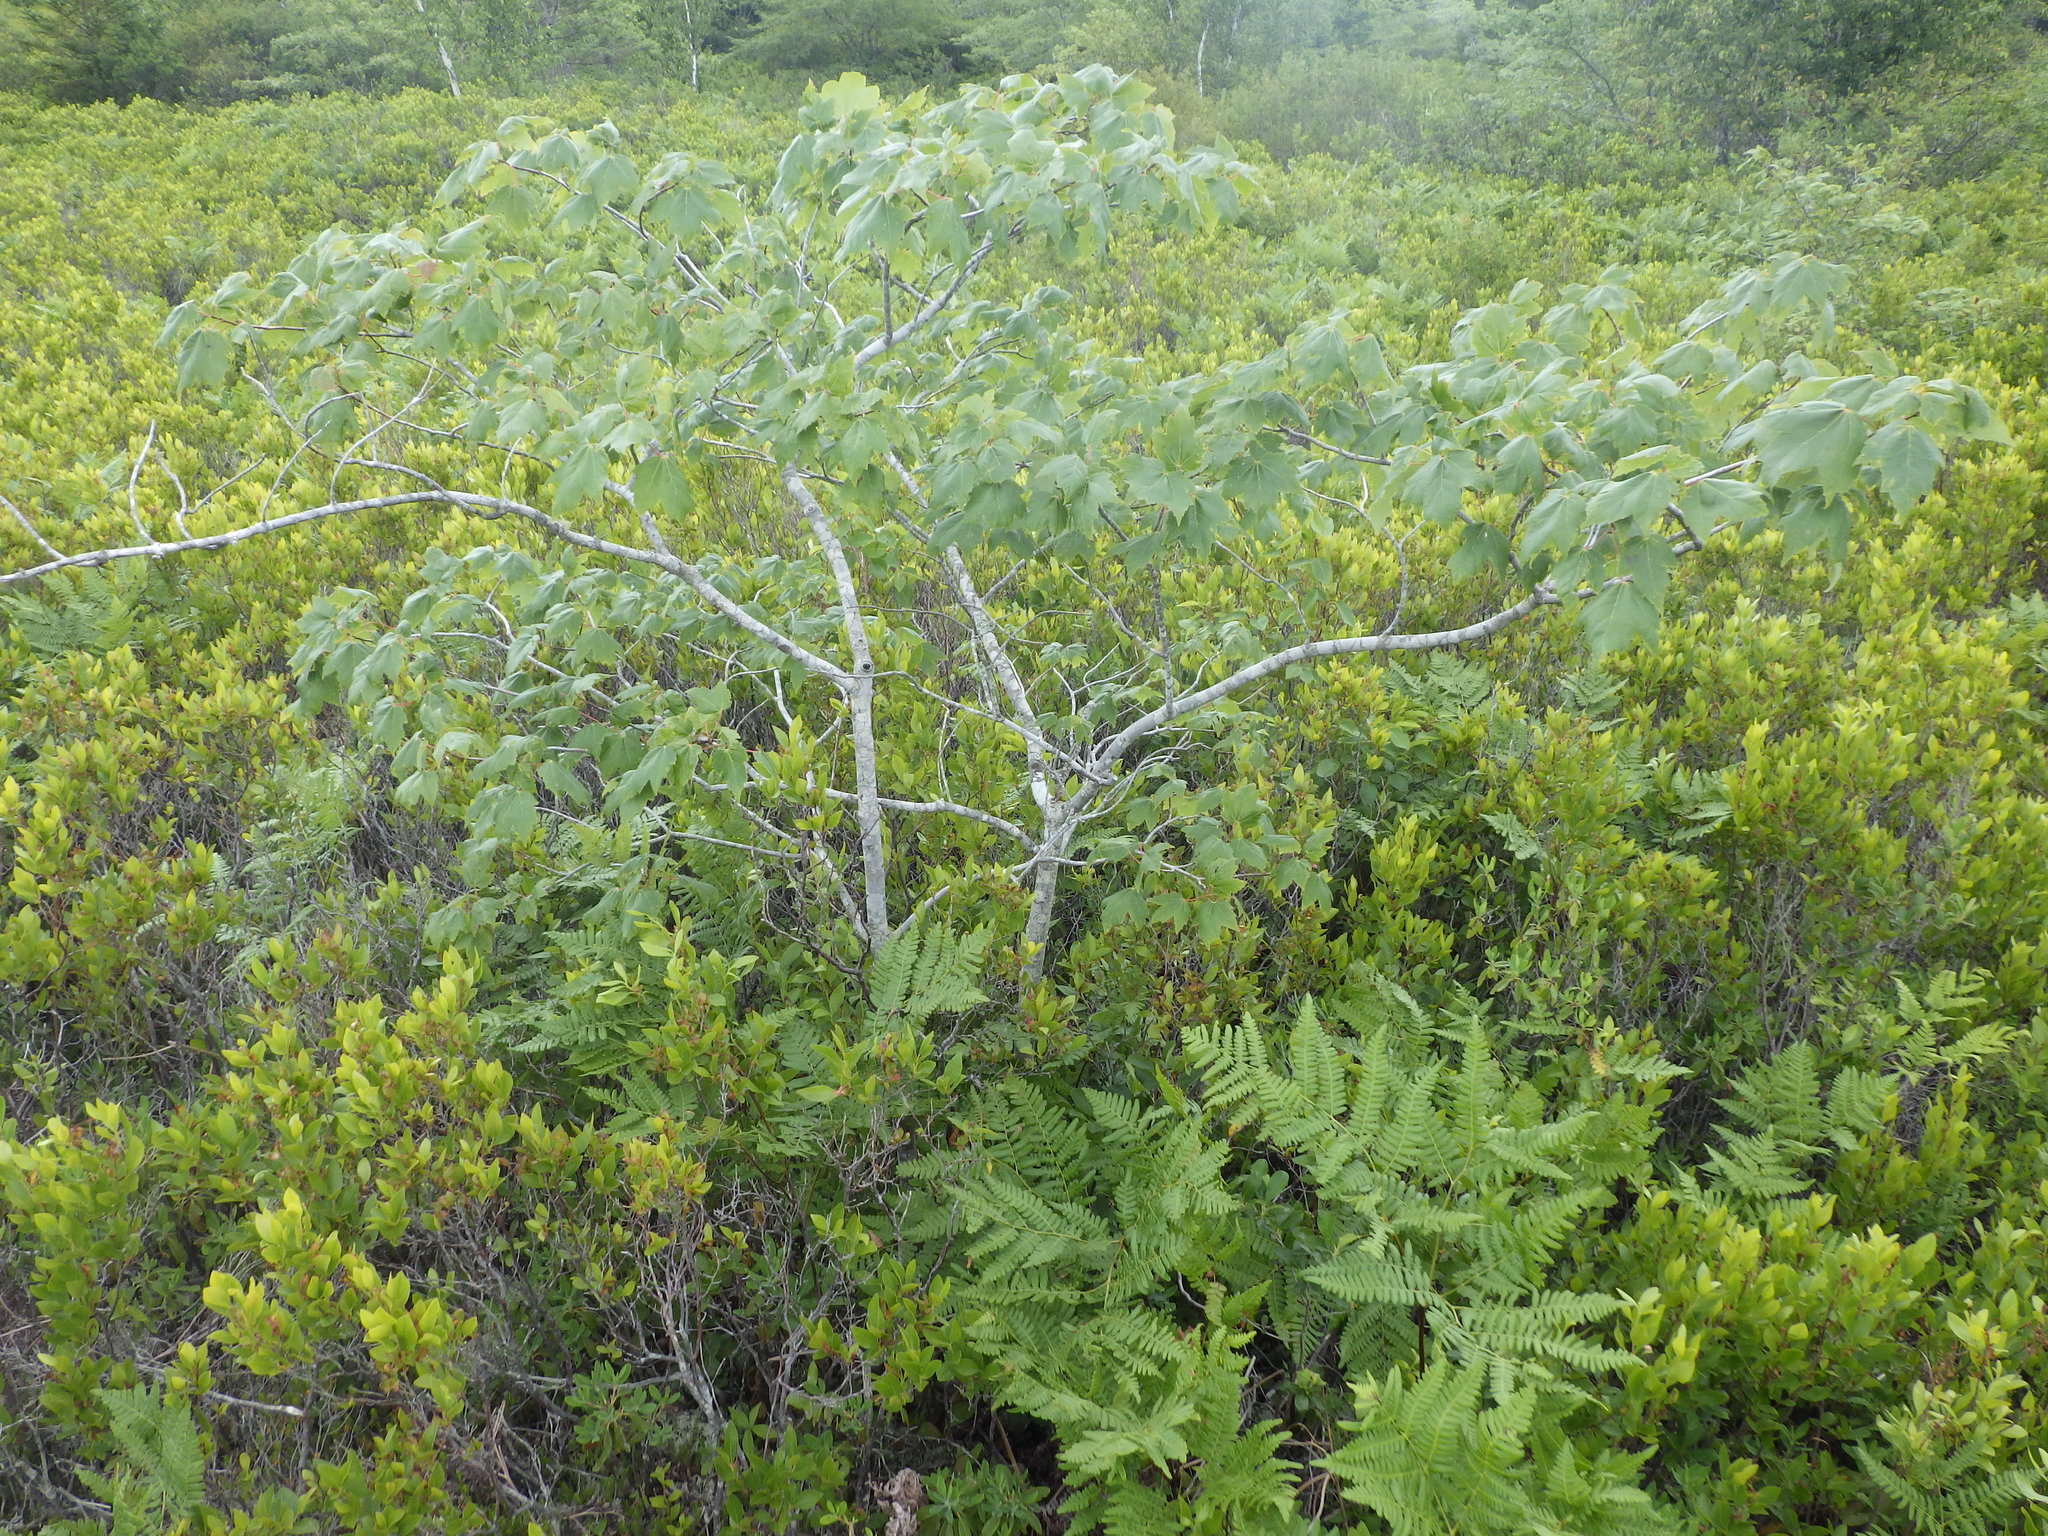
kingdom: Plantae
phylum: Tracheophyta
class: Magnoliopsida
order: Sapindales
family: Sapindaceae
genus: Acer
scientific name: Acer rubrum
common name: Red maple
